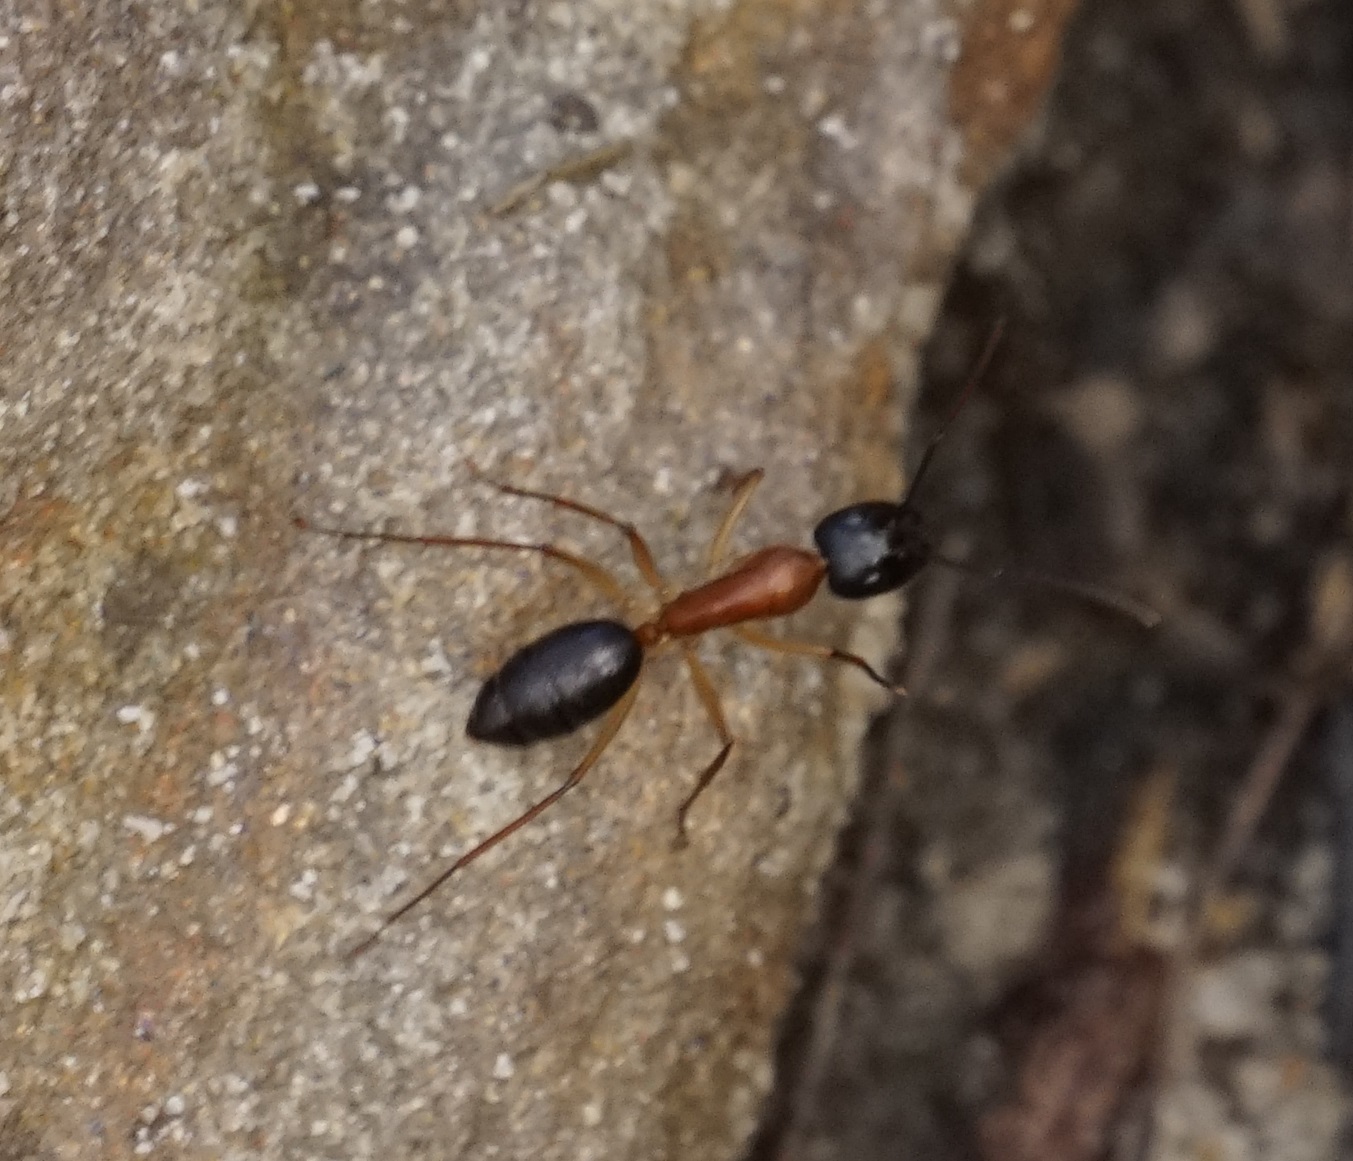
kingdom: Animalia
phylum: Arthropoda
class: Insecta
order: Hymenoptera
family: Formicidae
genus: Camponotus
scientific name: Camponotus nigriceps
